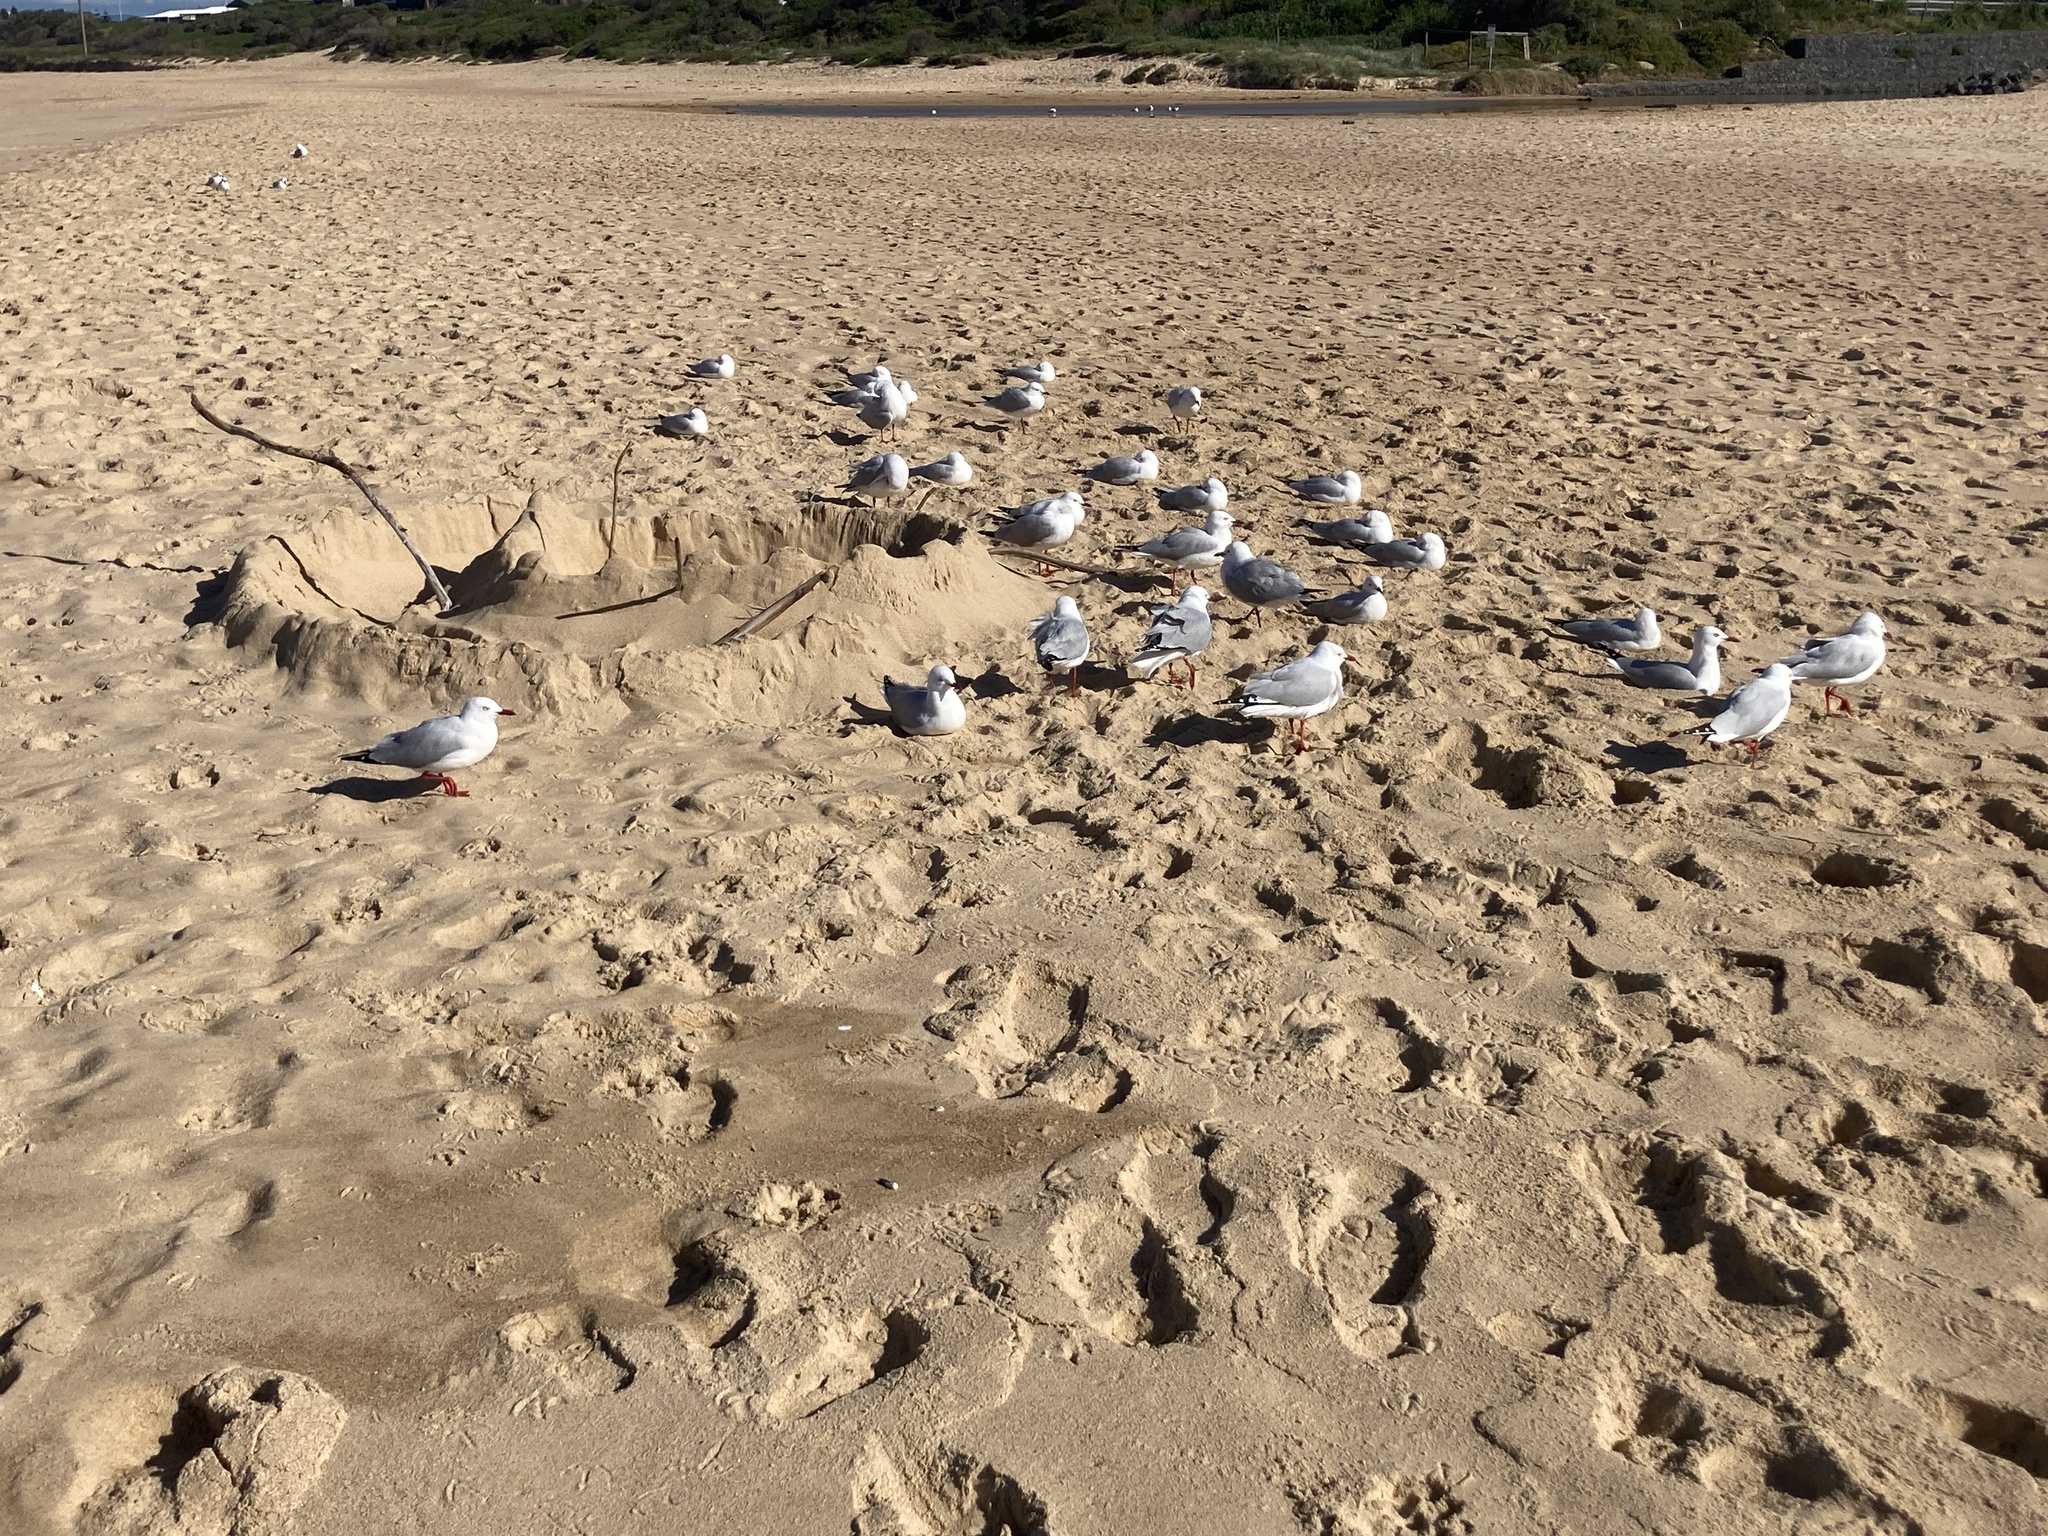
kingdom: Animalia
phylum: Chordata
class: Aves
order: Charadriiformes
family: Laridae
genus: Chroicocephalus
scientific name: Chroicocephalus novaehollandiae
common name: Silver gull
